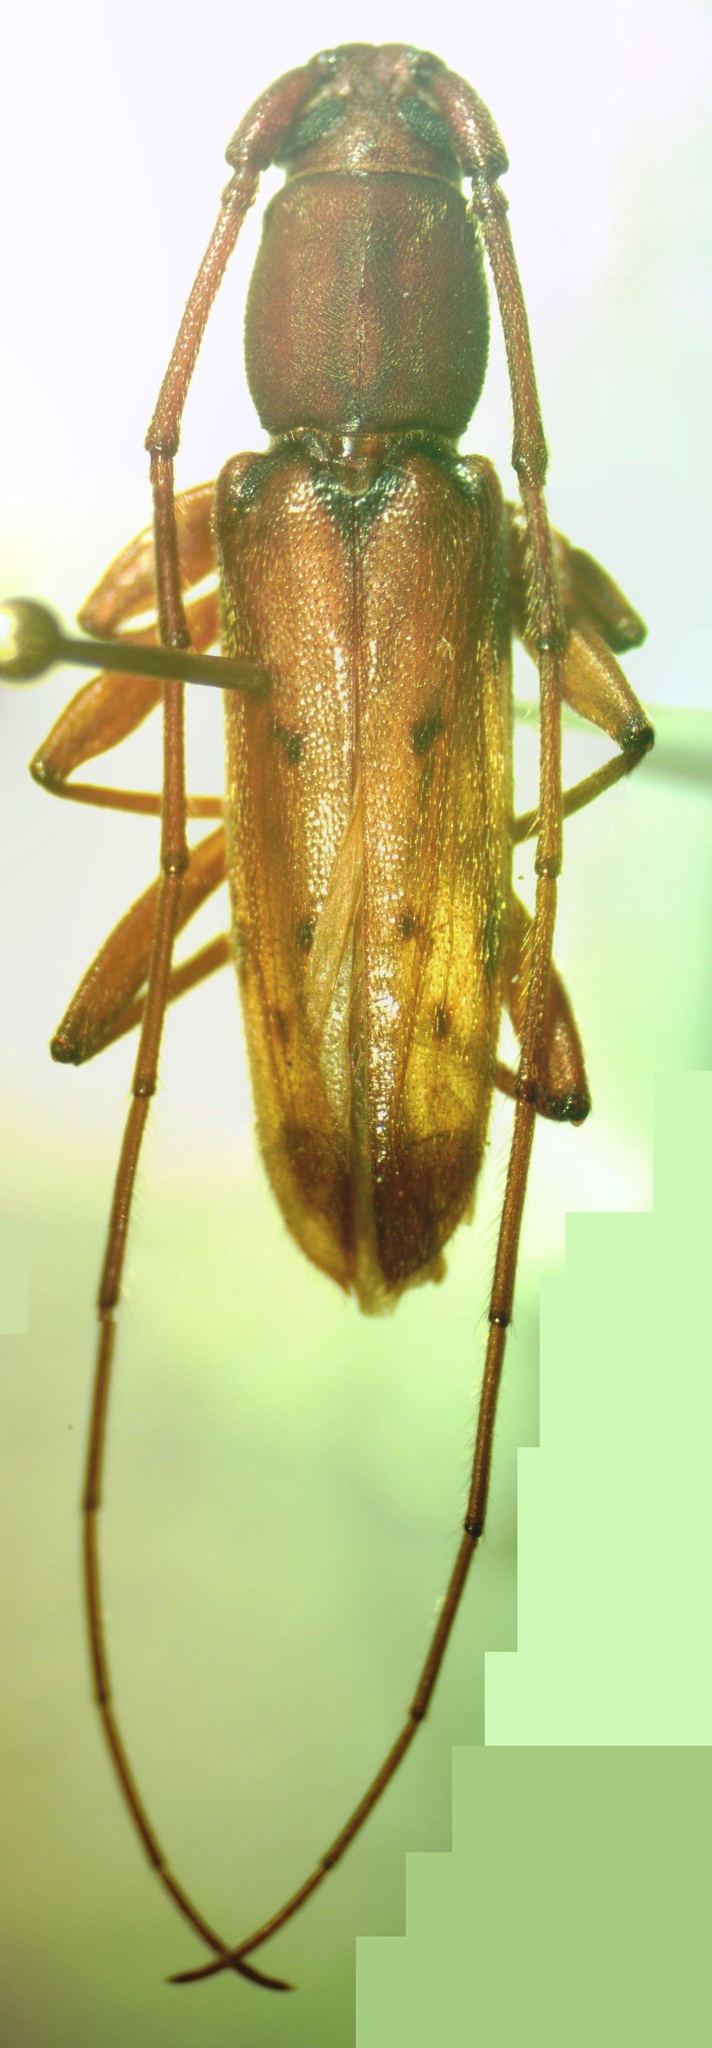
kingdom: Animalia
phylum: Arthropoda
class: Insecta
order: Coleoptera
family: Cerambycidae
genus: Achryson
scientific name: Achryson surinamum
